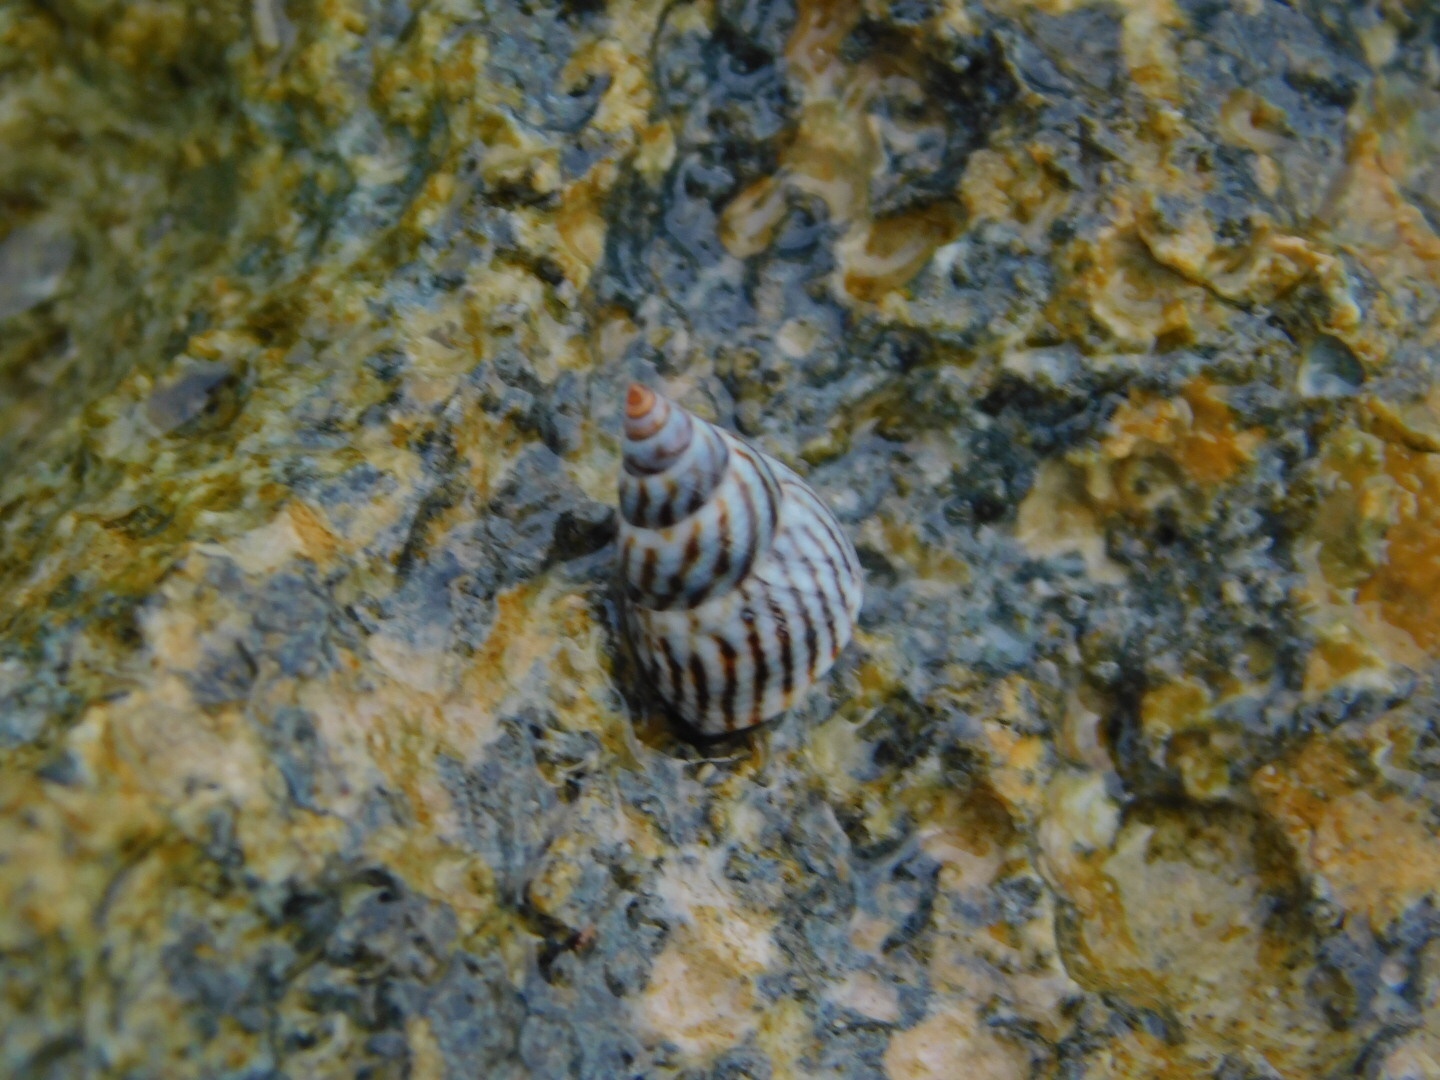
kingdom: Animalia
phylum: Mollusca
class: Gastropoda
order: Littorinimorpha
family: Littorinidae
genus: Echinolittorina
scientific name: Echinolittorina ziczac
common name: Zebra periwinkle
